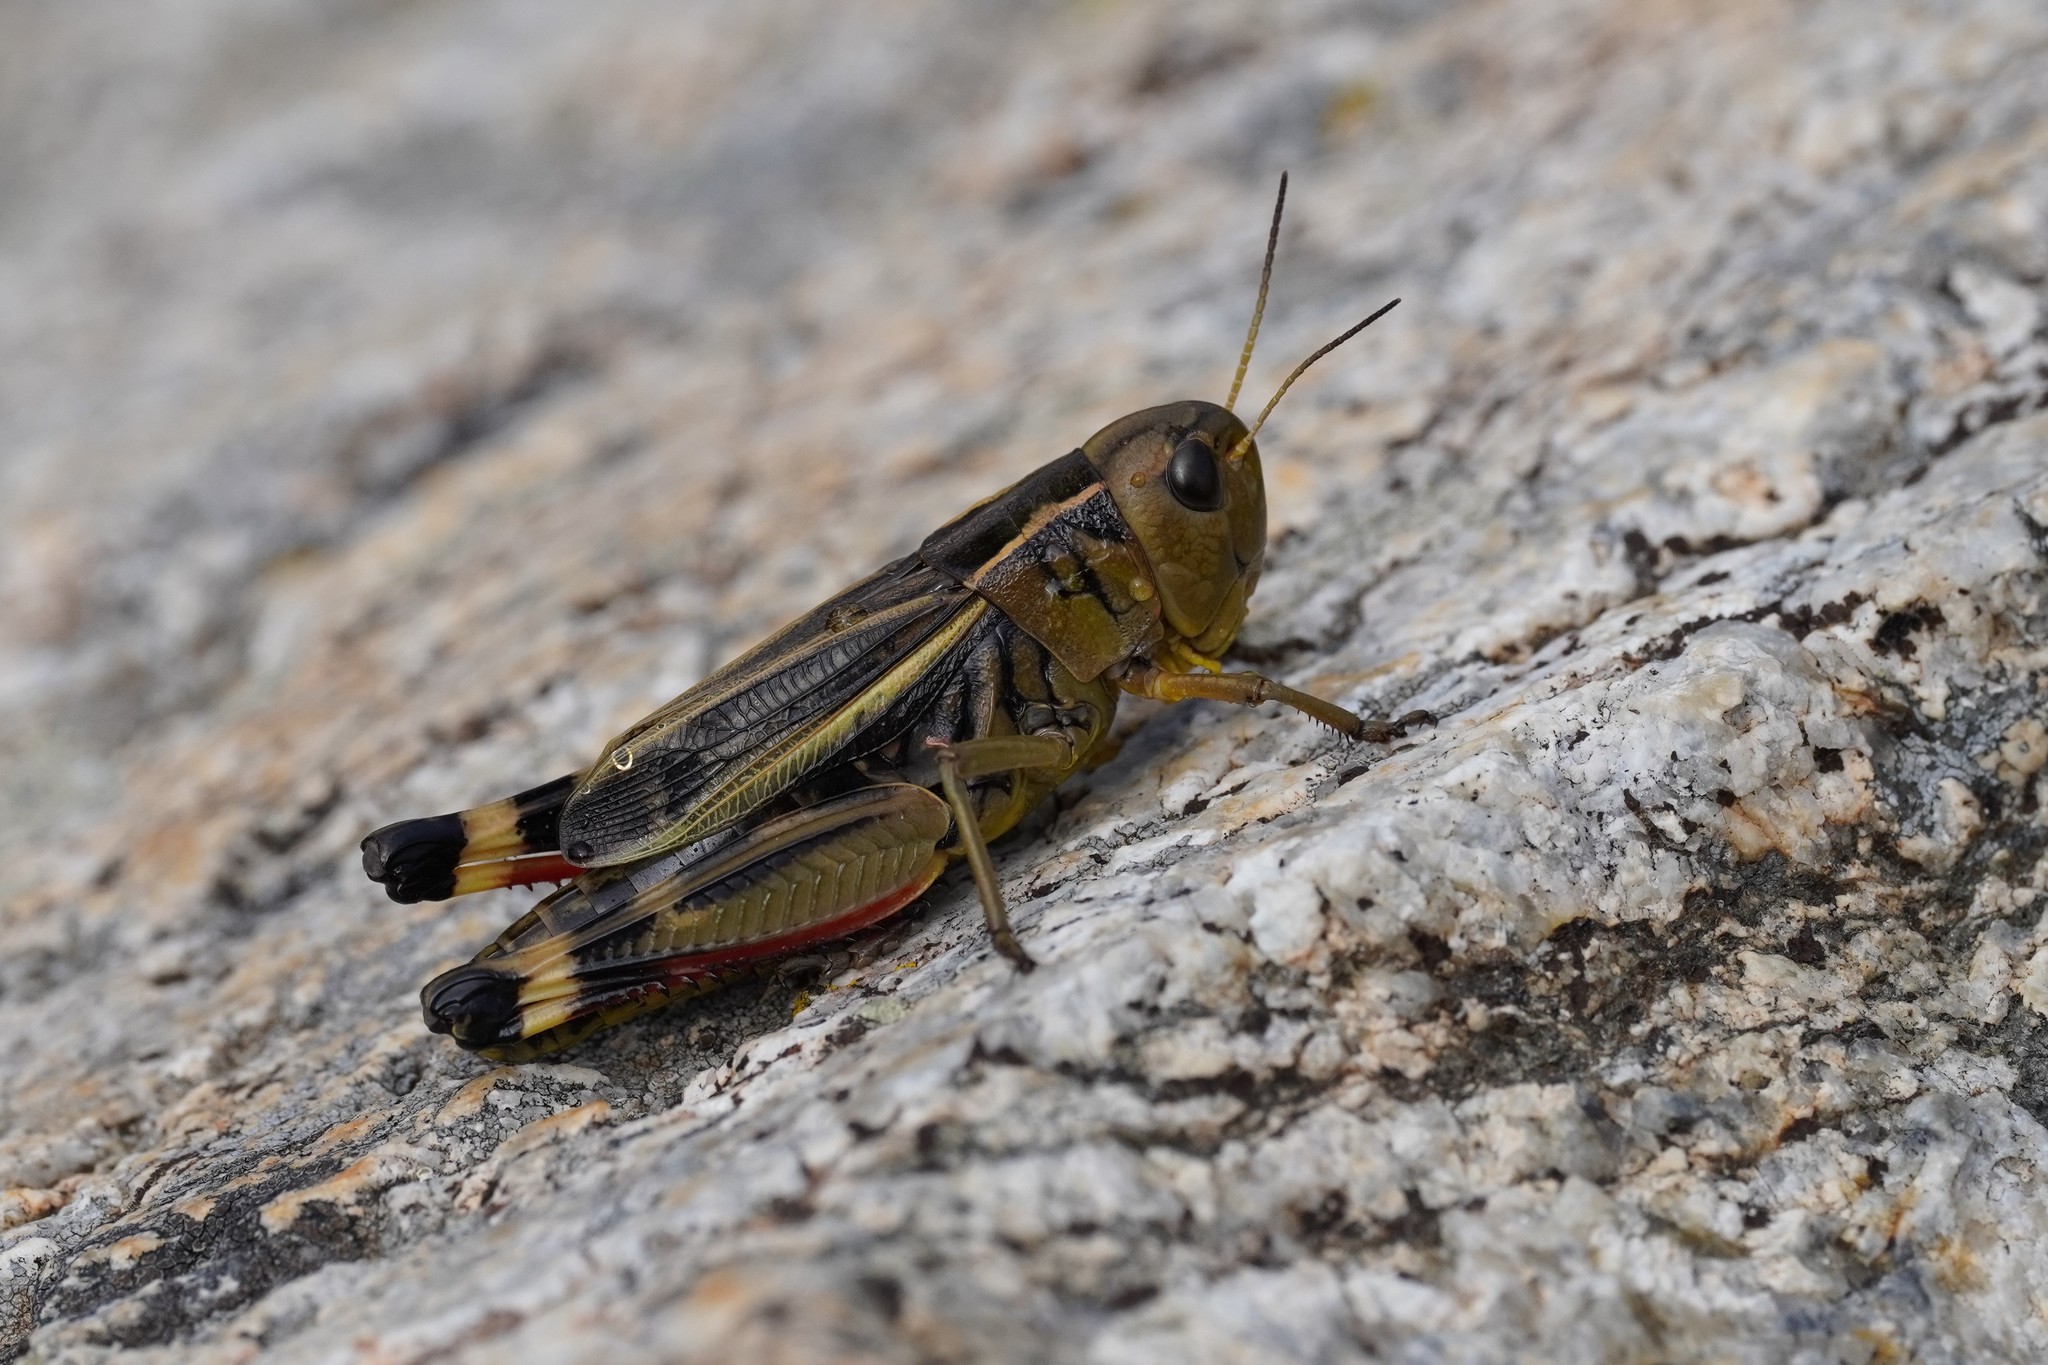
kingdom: Animalia
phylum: Arthropoda
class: Insecta
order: Orthoptera
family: Acrididae
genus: Arcyptera
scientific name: Arcyptera fusca
